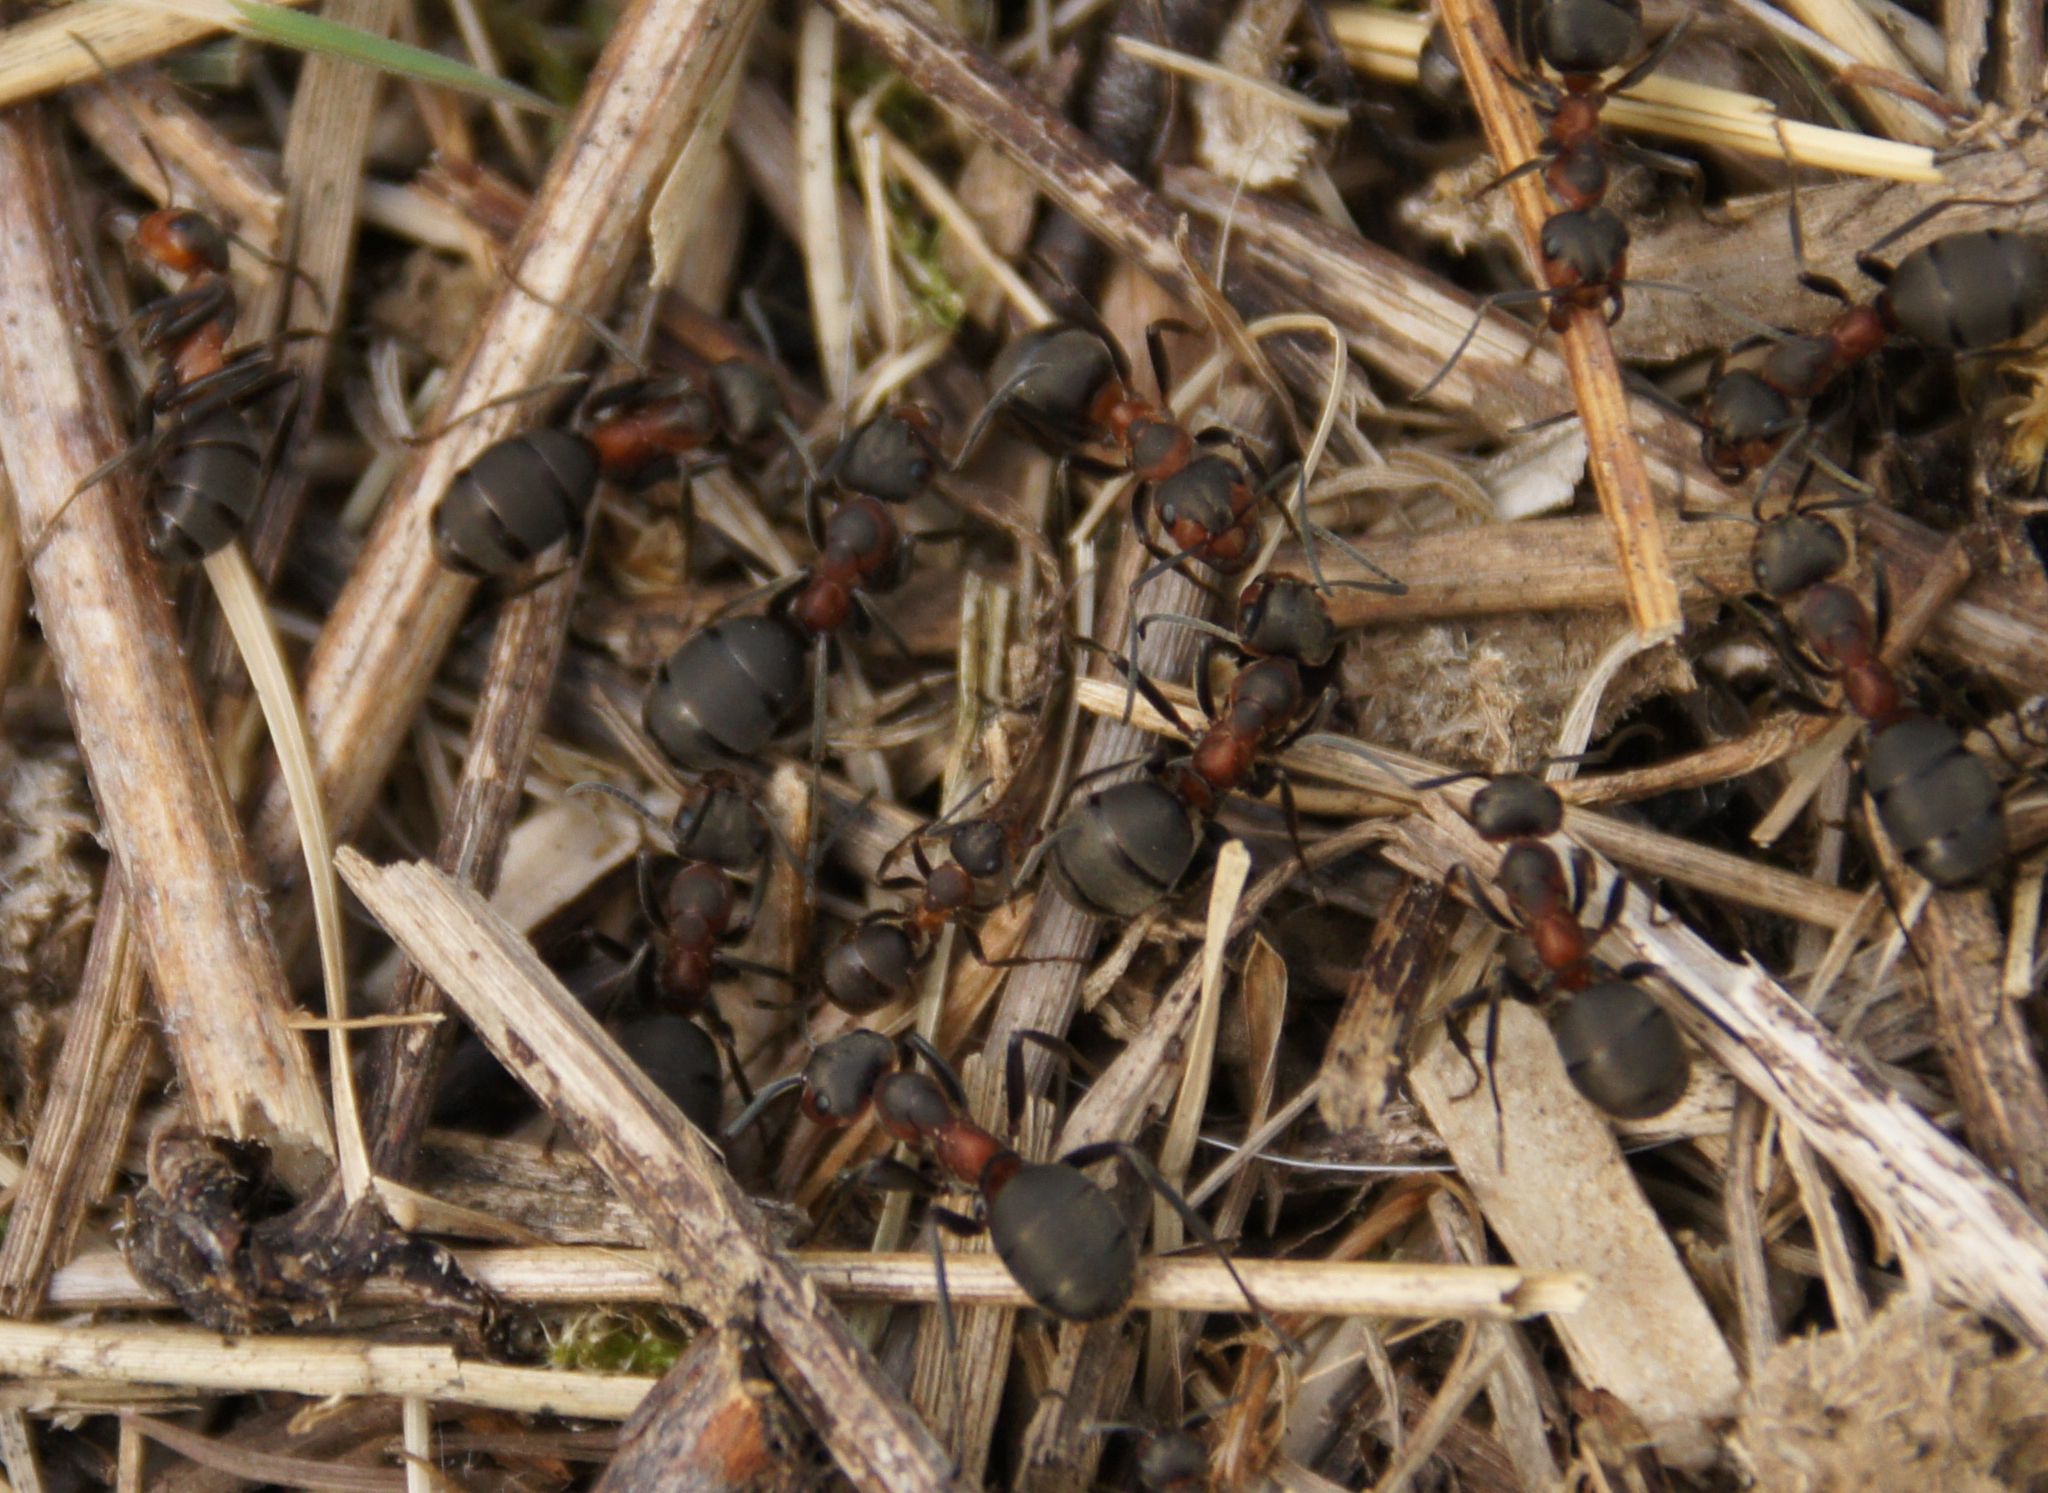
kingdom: Animalia
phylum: Arthropoda
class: Insecta
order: Hymenoptera
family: Formicidae
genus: Formica
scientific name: Formica pratensis
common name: European red wood ant
